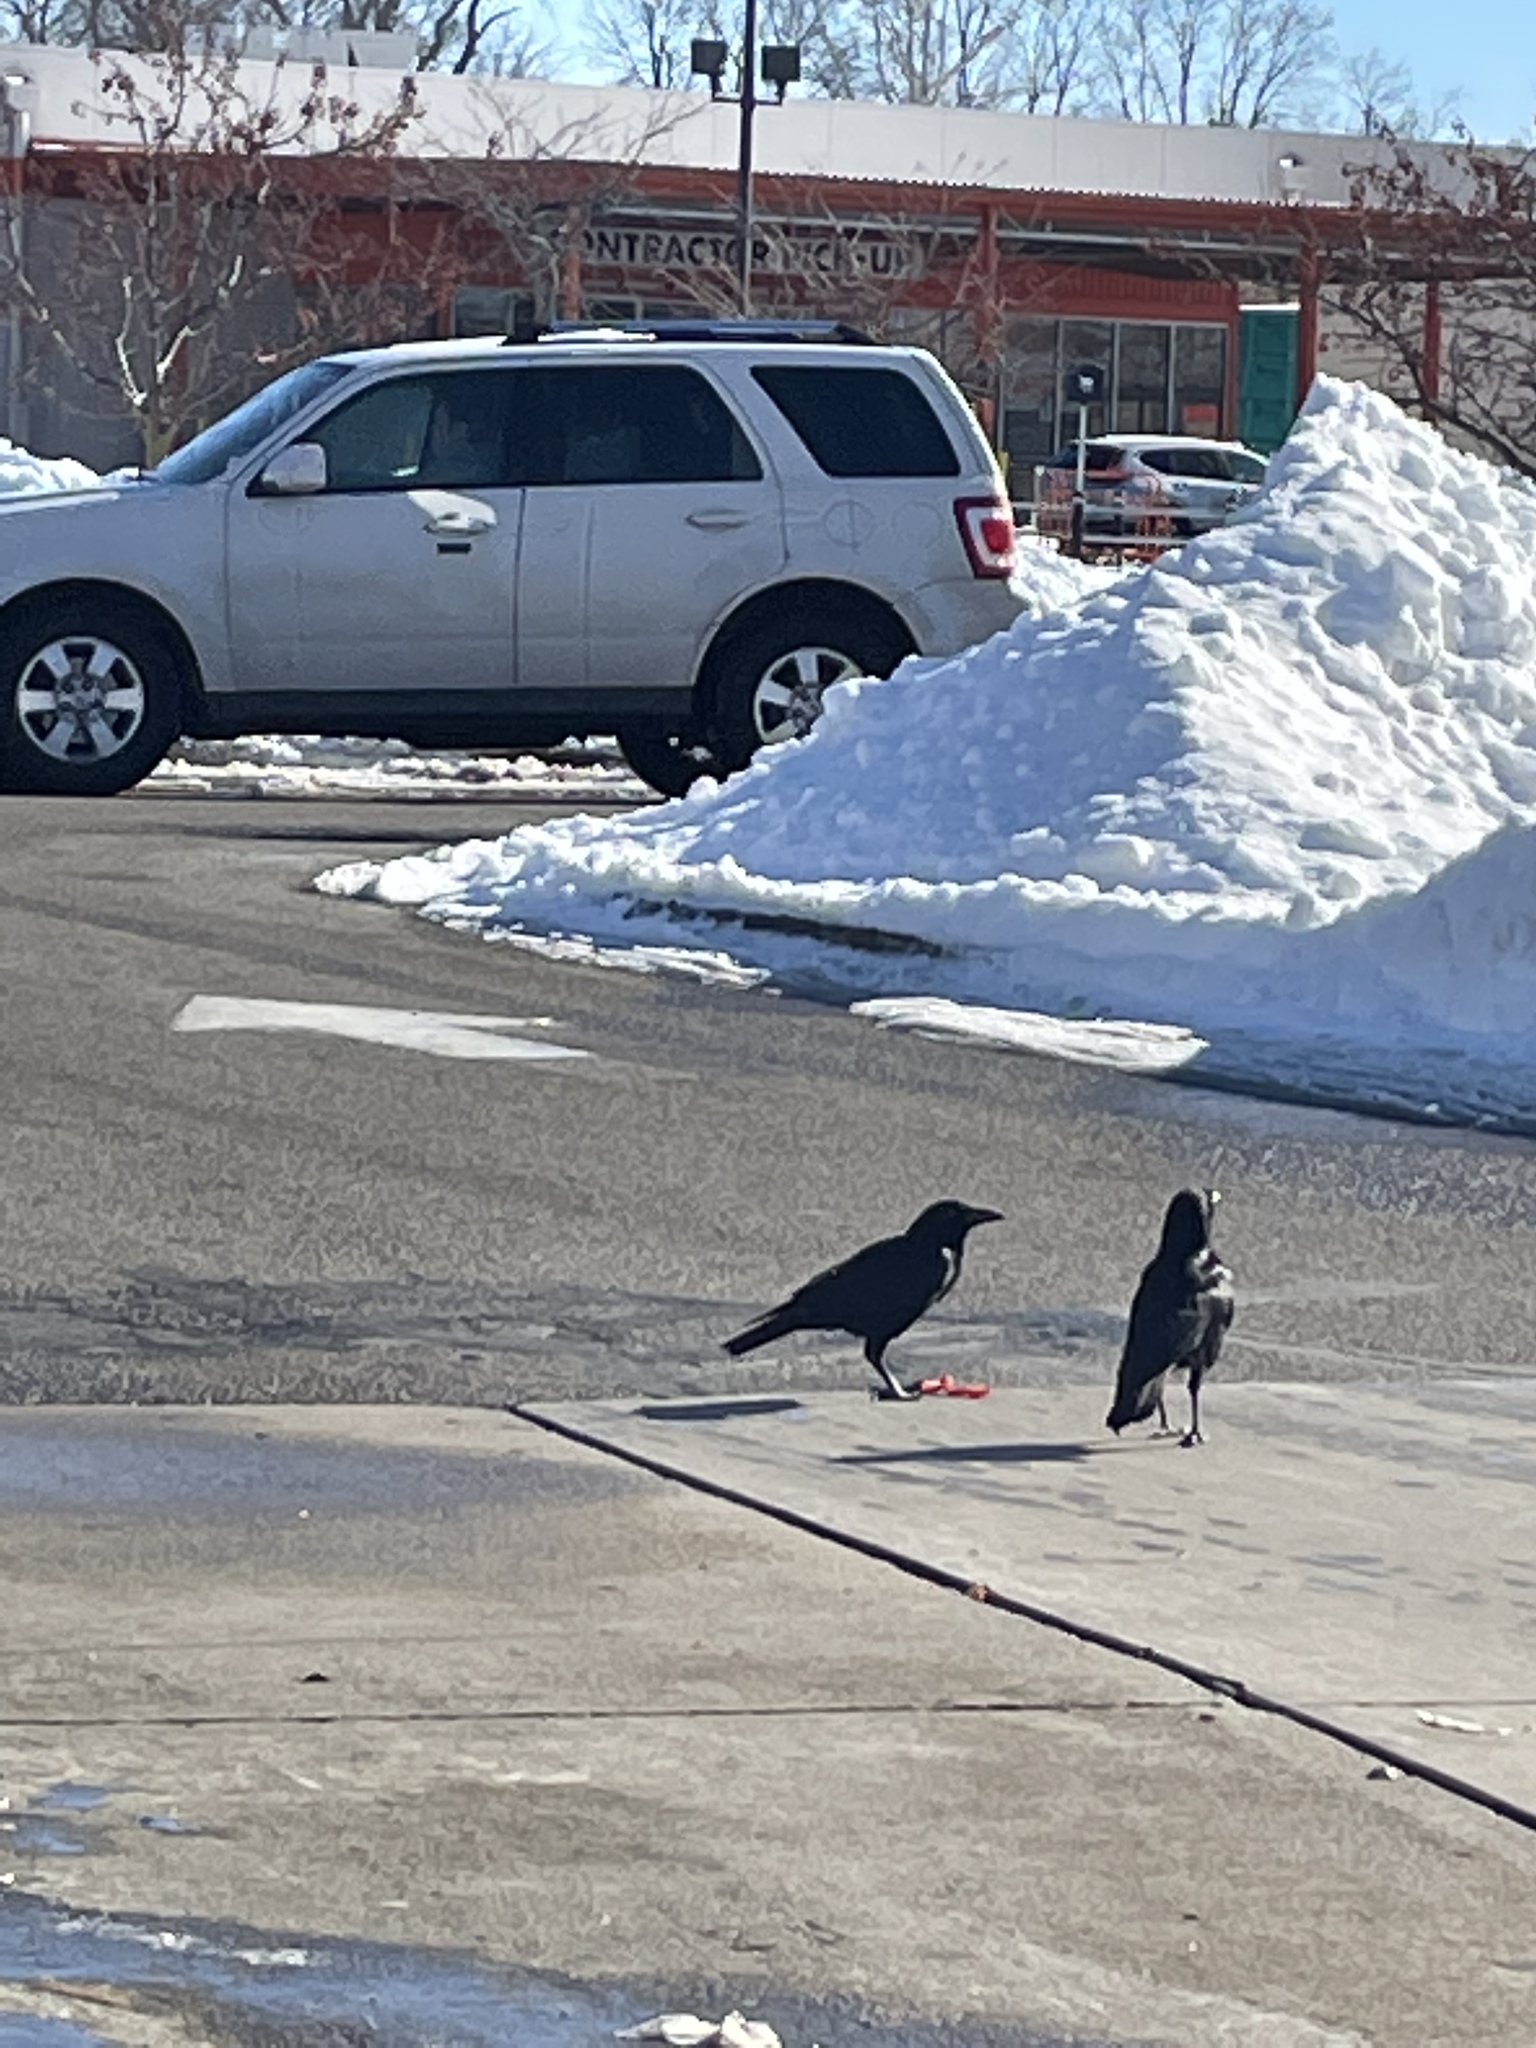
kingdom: Animalia
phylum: Chordata
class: Aves
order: Passeriformes
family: Corvidae
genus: Corvus
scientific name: Corvus brachyrhynchos
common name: American crow
